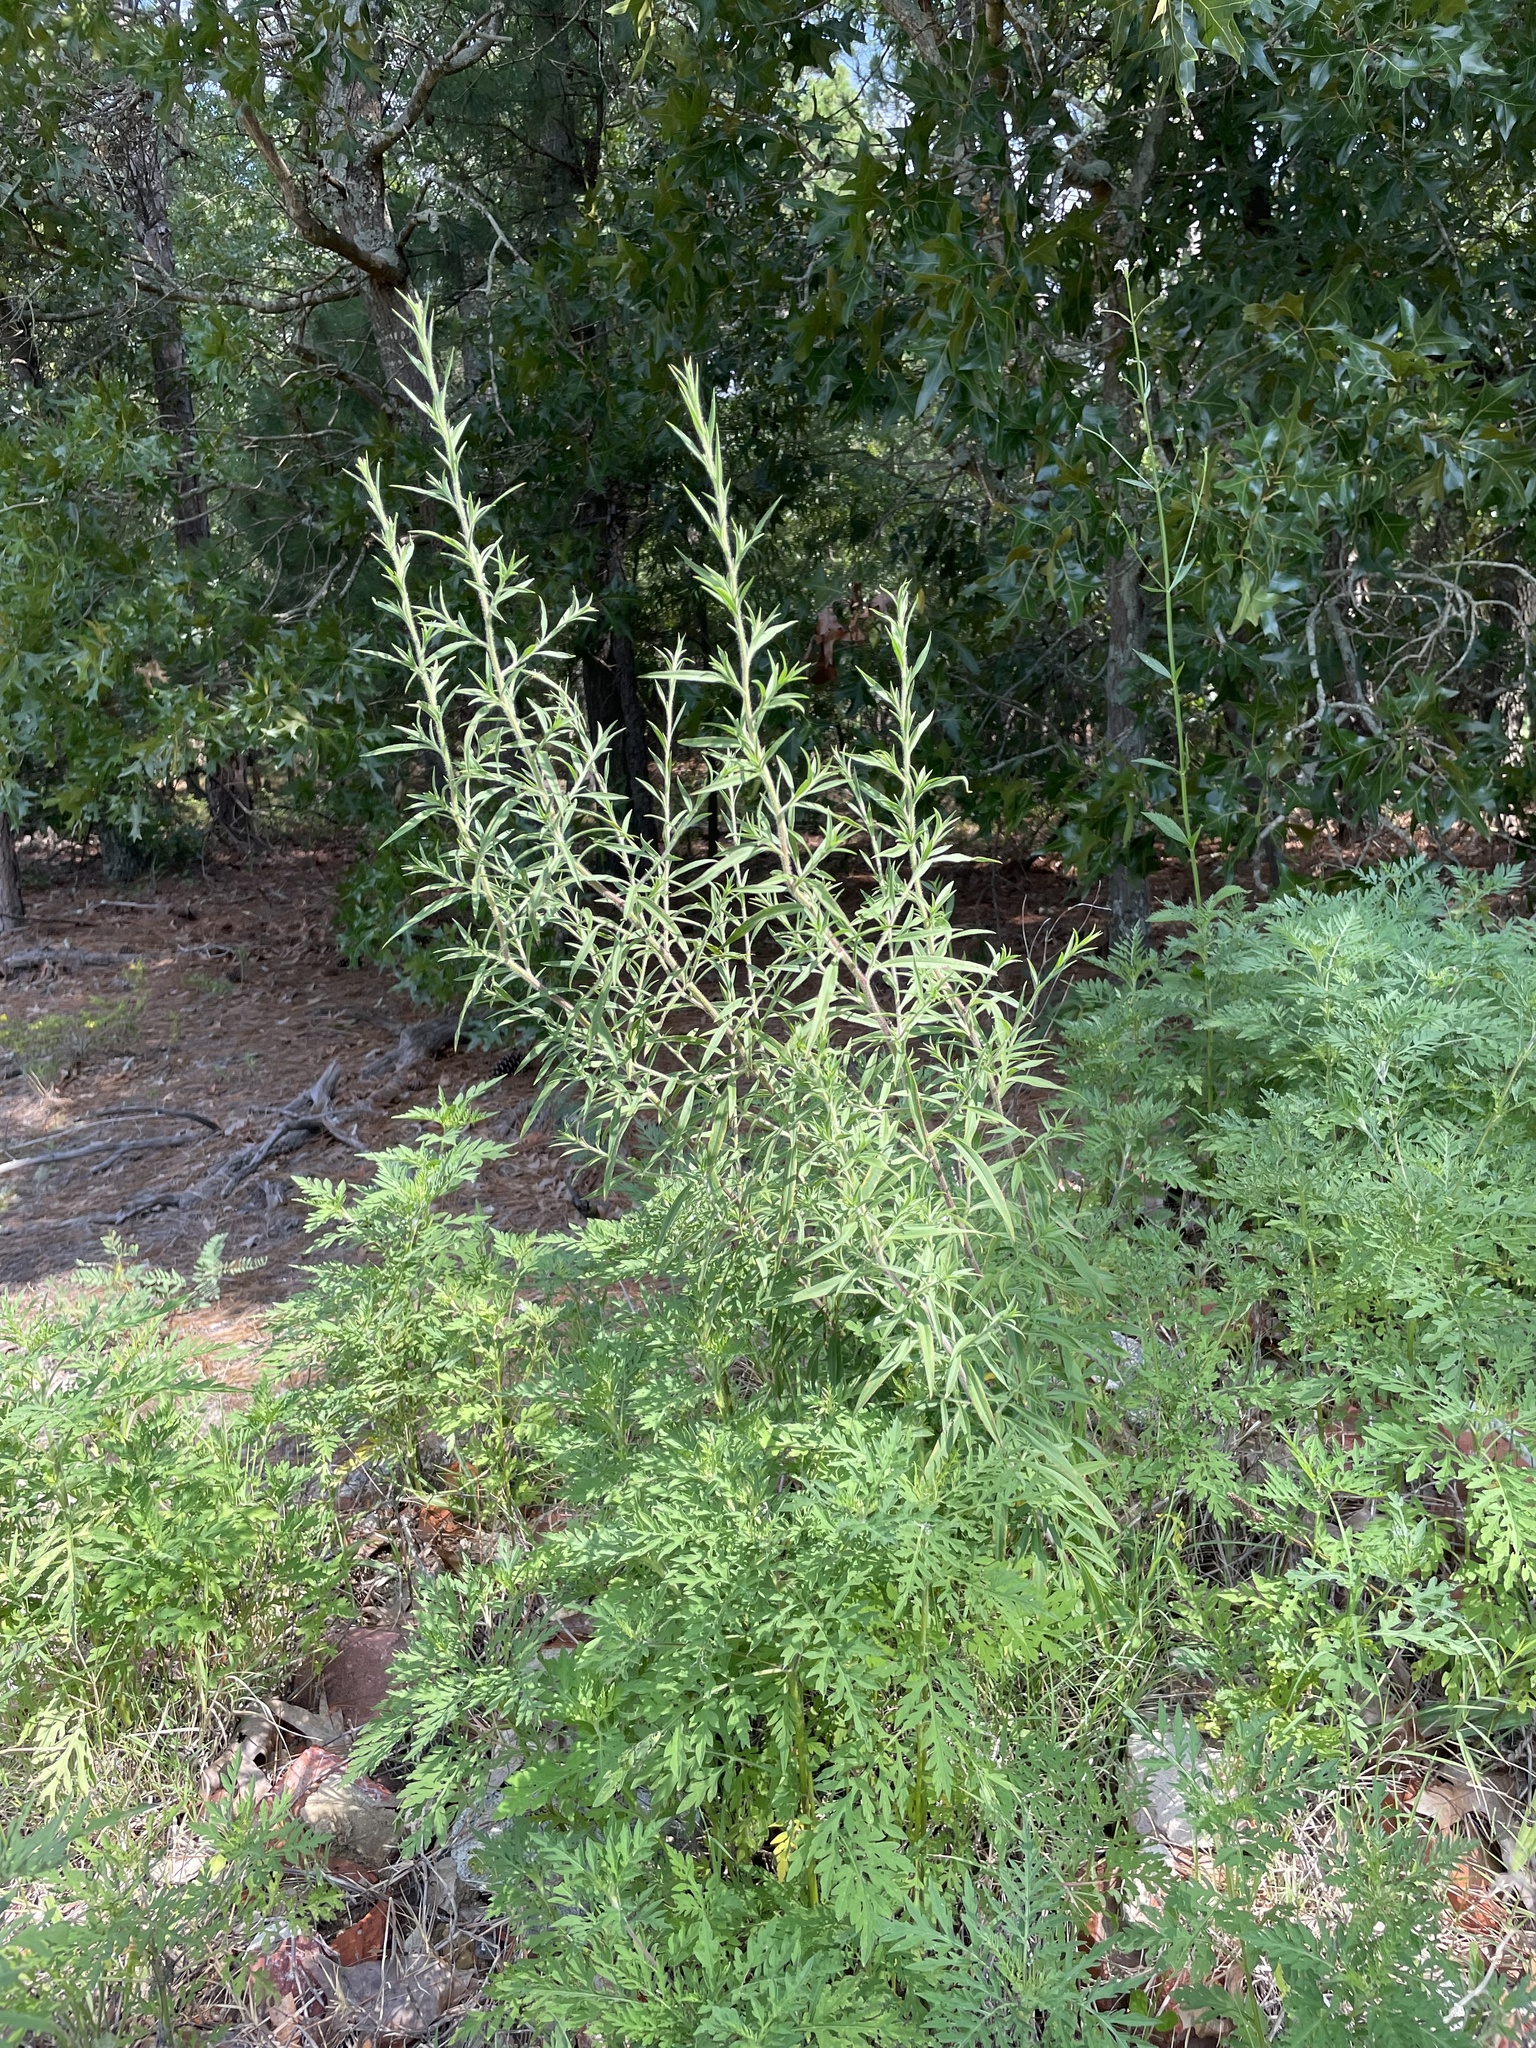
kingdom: Plantae
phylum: Tracheophyta
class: Magnoliopsida
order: Asterales
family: Asteraceae
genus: Symphyotrichum
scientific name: Symphyotrichum pilosum
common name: Awl aster
